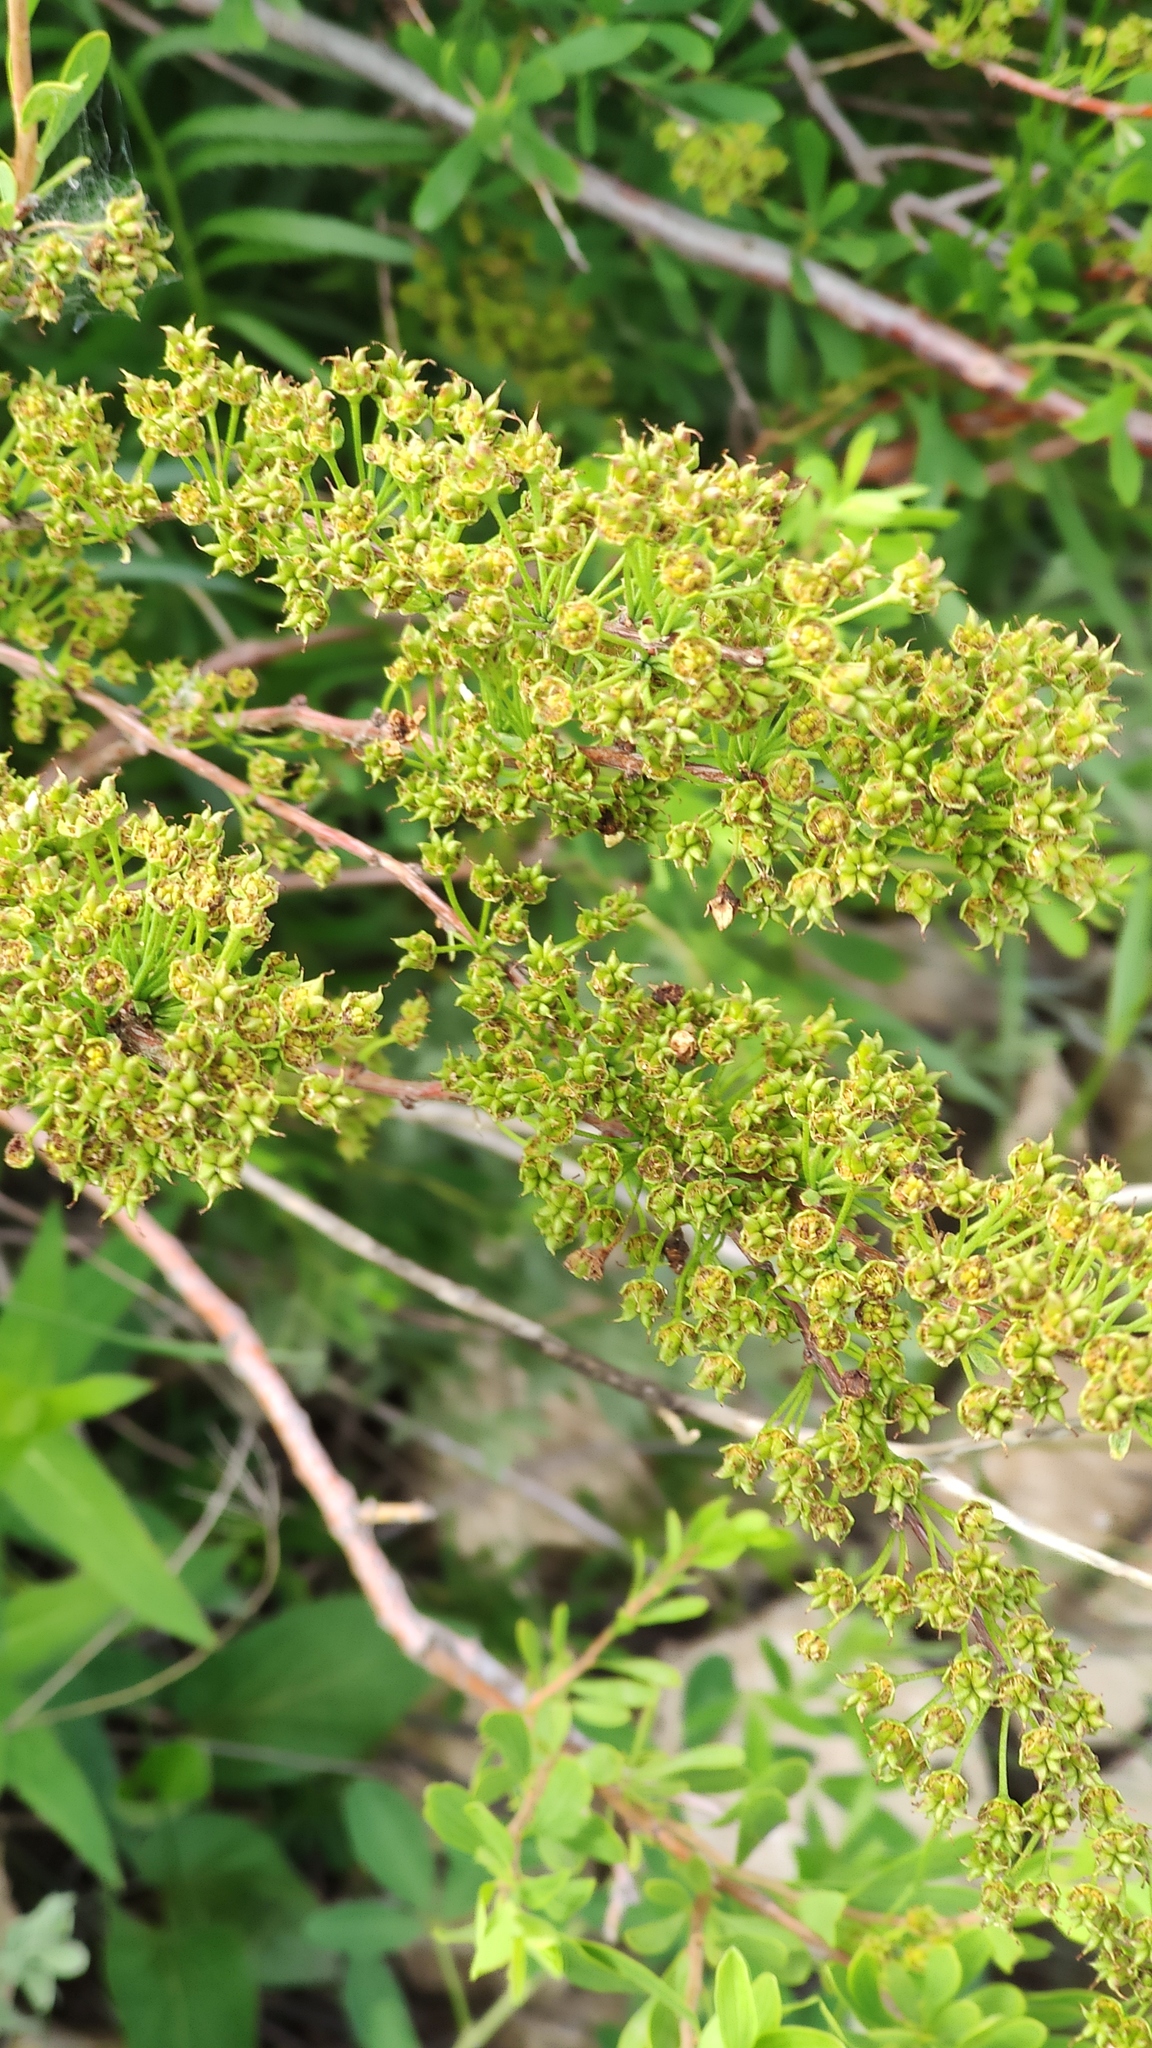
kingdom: Plantae
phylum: Tracheophyta
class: Magnoliopsida
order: Rosales
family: Rosaceae
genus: Spiraea
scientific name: Spiraea hypericifolia
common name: Iberian spirea
